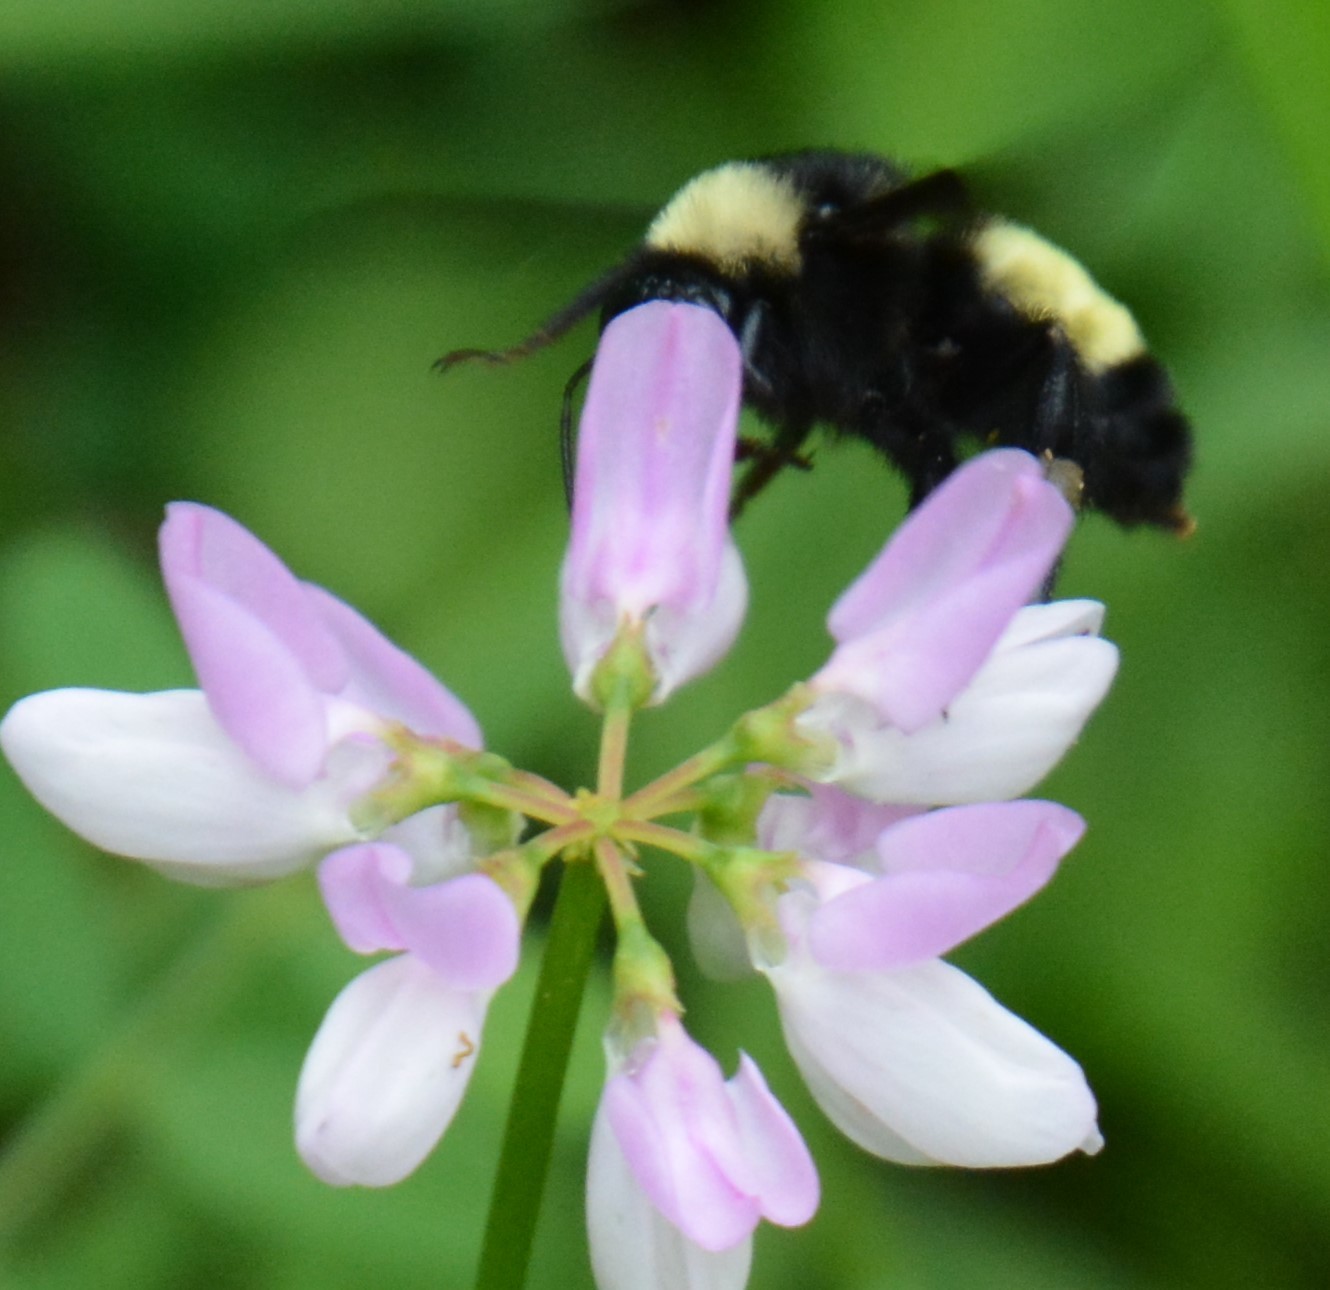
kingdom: Animalia
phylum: Arthropoda
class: Insecta
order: Hymenoptera
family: Apidae
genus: Bombus
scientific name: Bombus pensylvanicus
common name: Bumble bee
